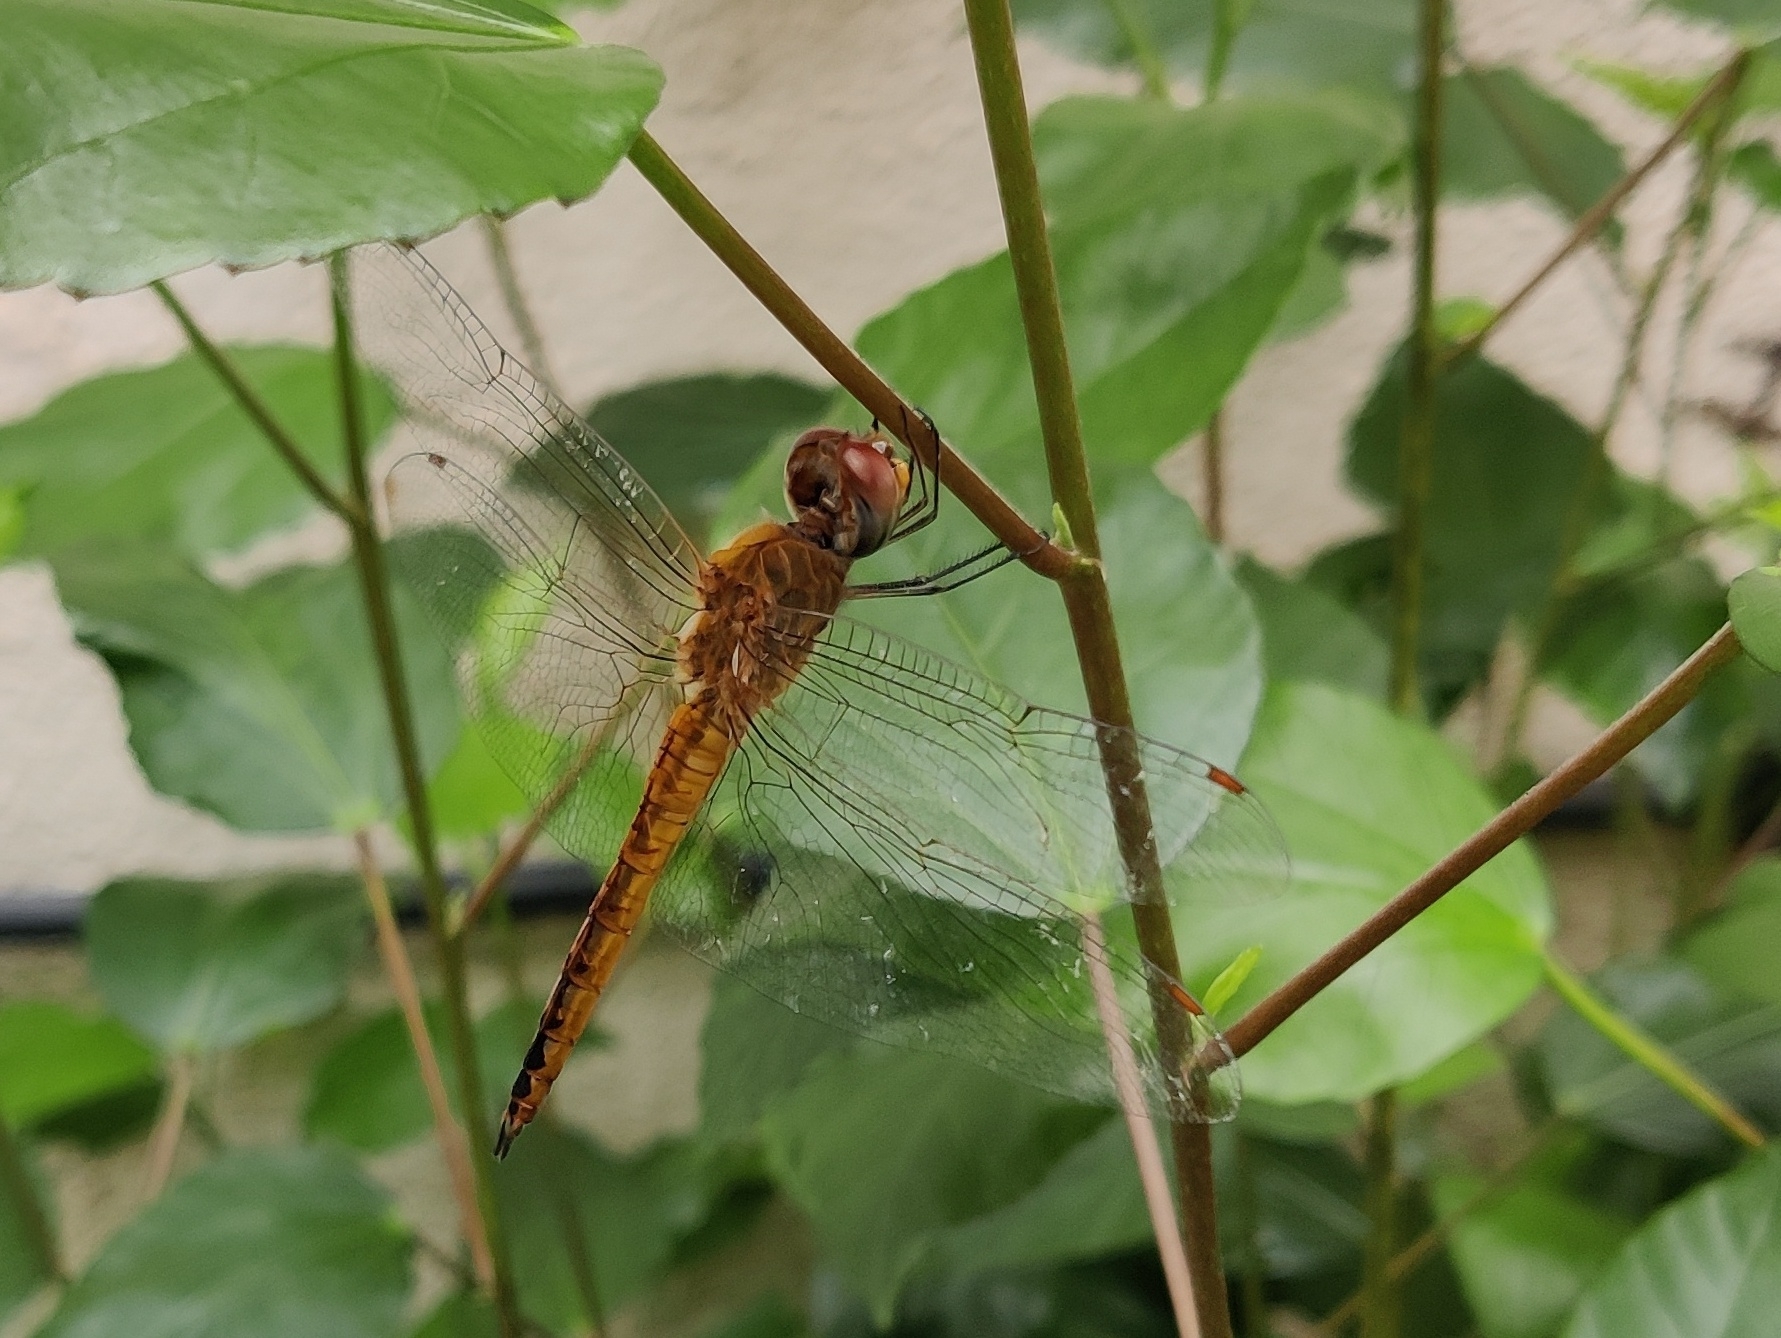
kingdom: Animalia
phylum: Arthropoda
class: Insecta
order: Odonata
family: Libellulidae
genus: Pantala
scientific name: Pantala flavescens
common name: Wandering glider
